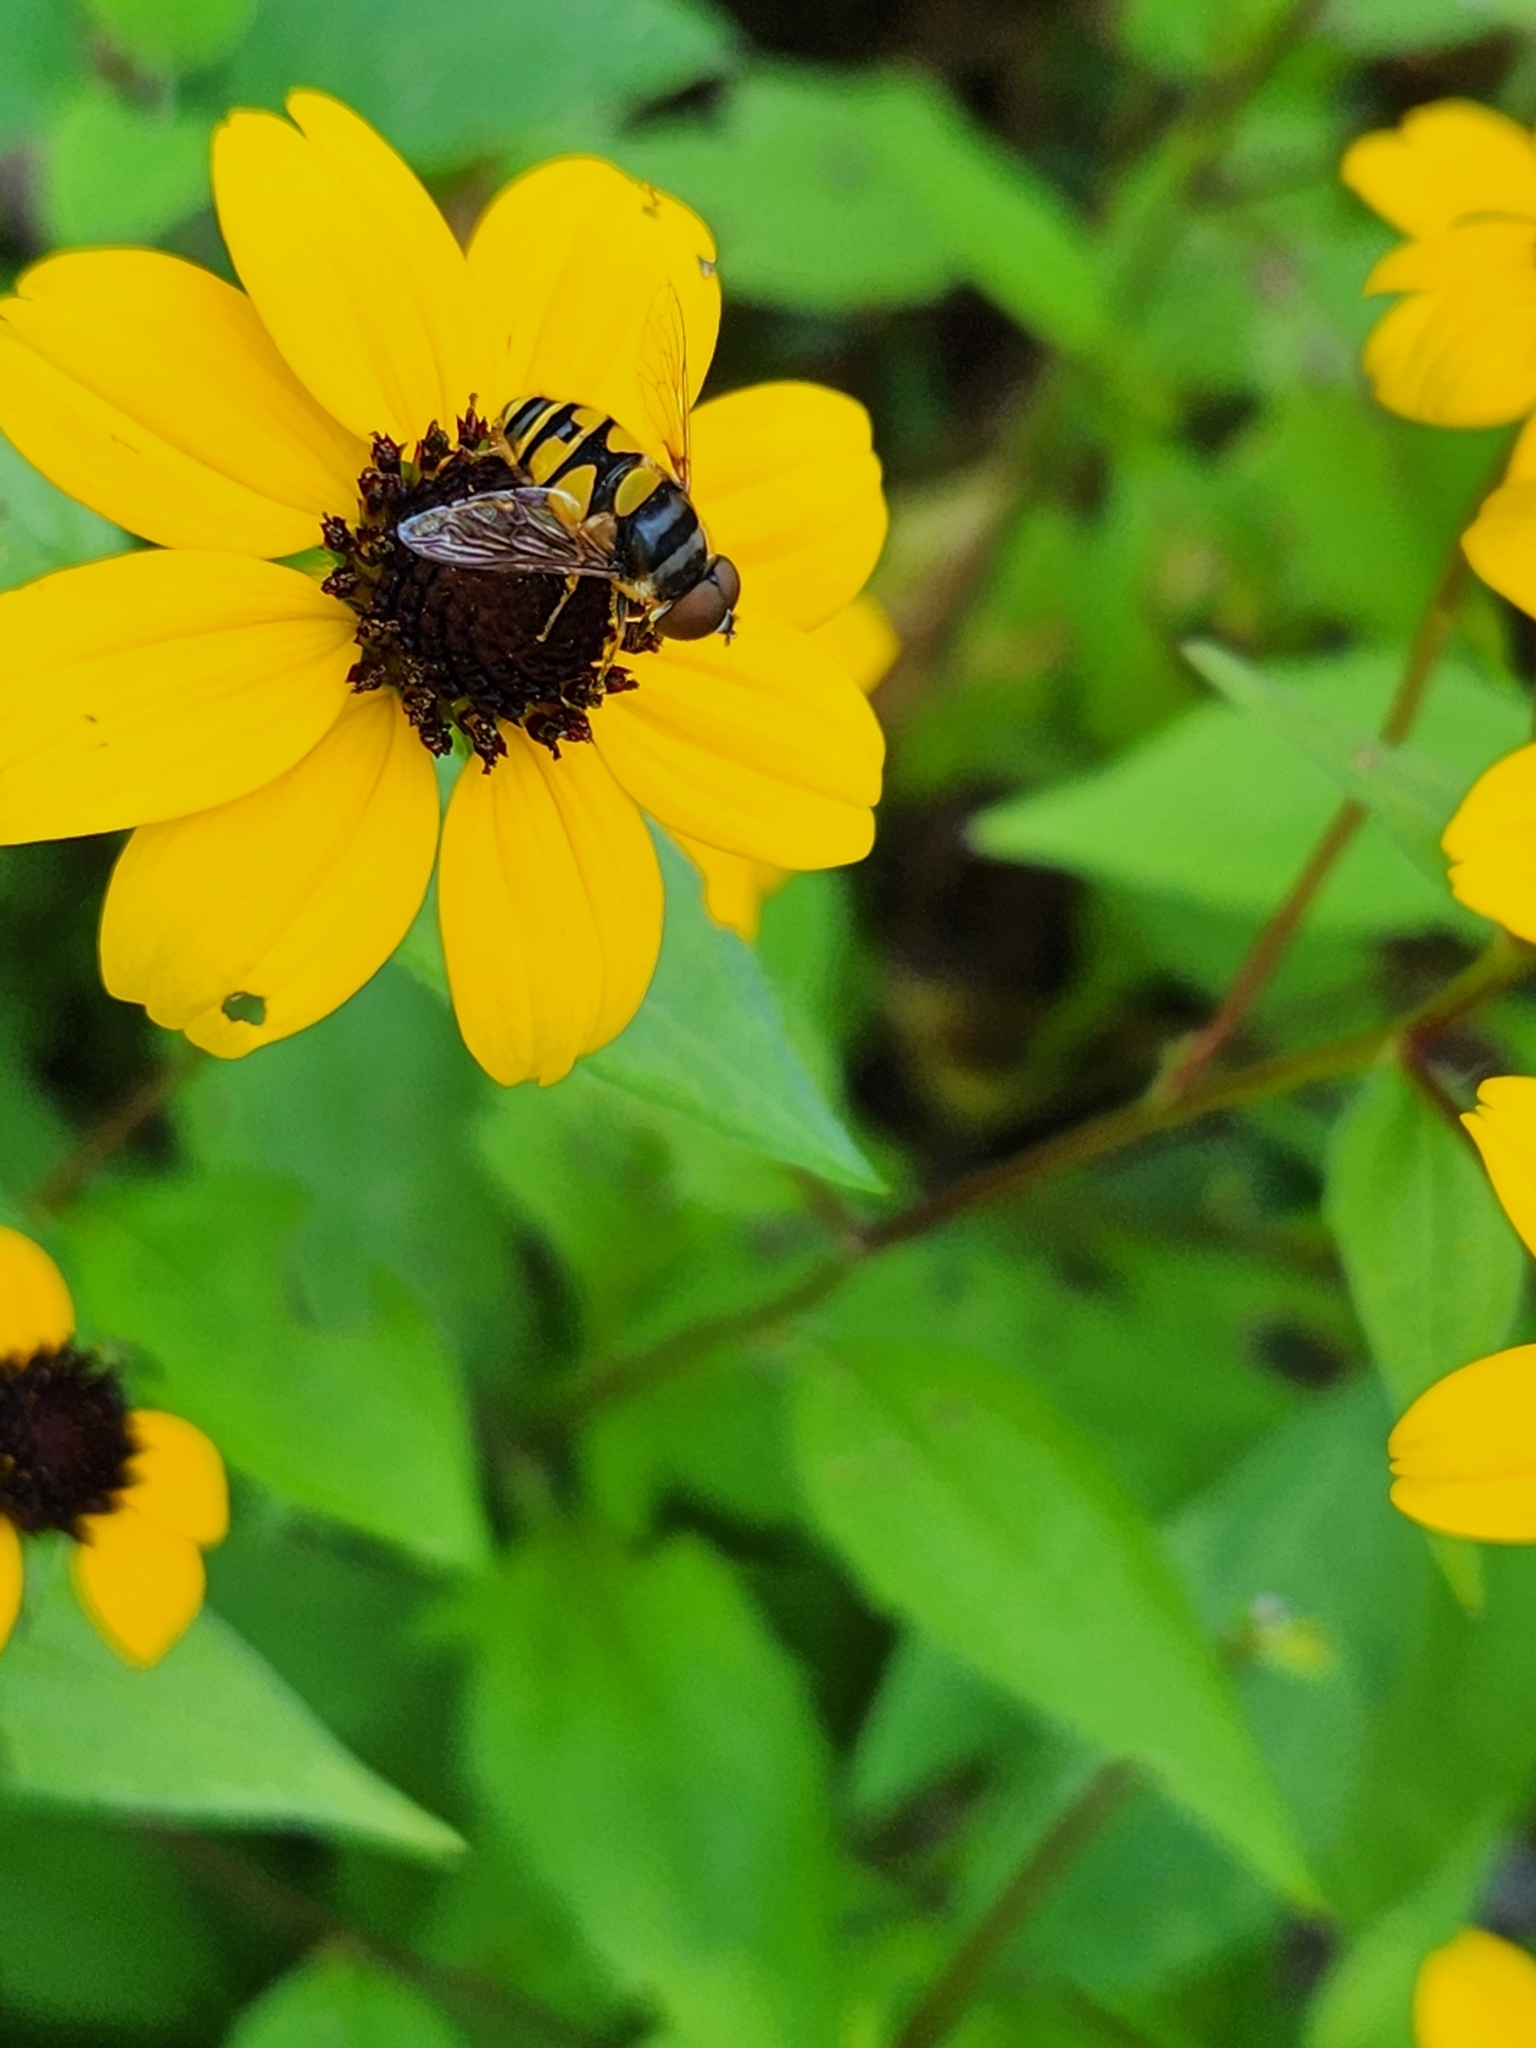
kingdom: Animalia
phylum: Arthropoda
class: Insecta
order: Diptera
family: Syrphidae
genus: Eristalis
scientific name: Eristalis transversa
